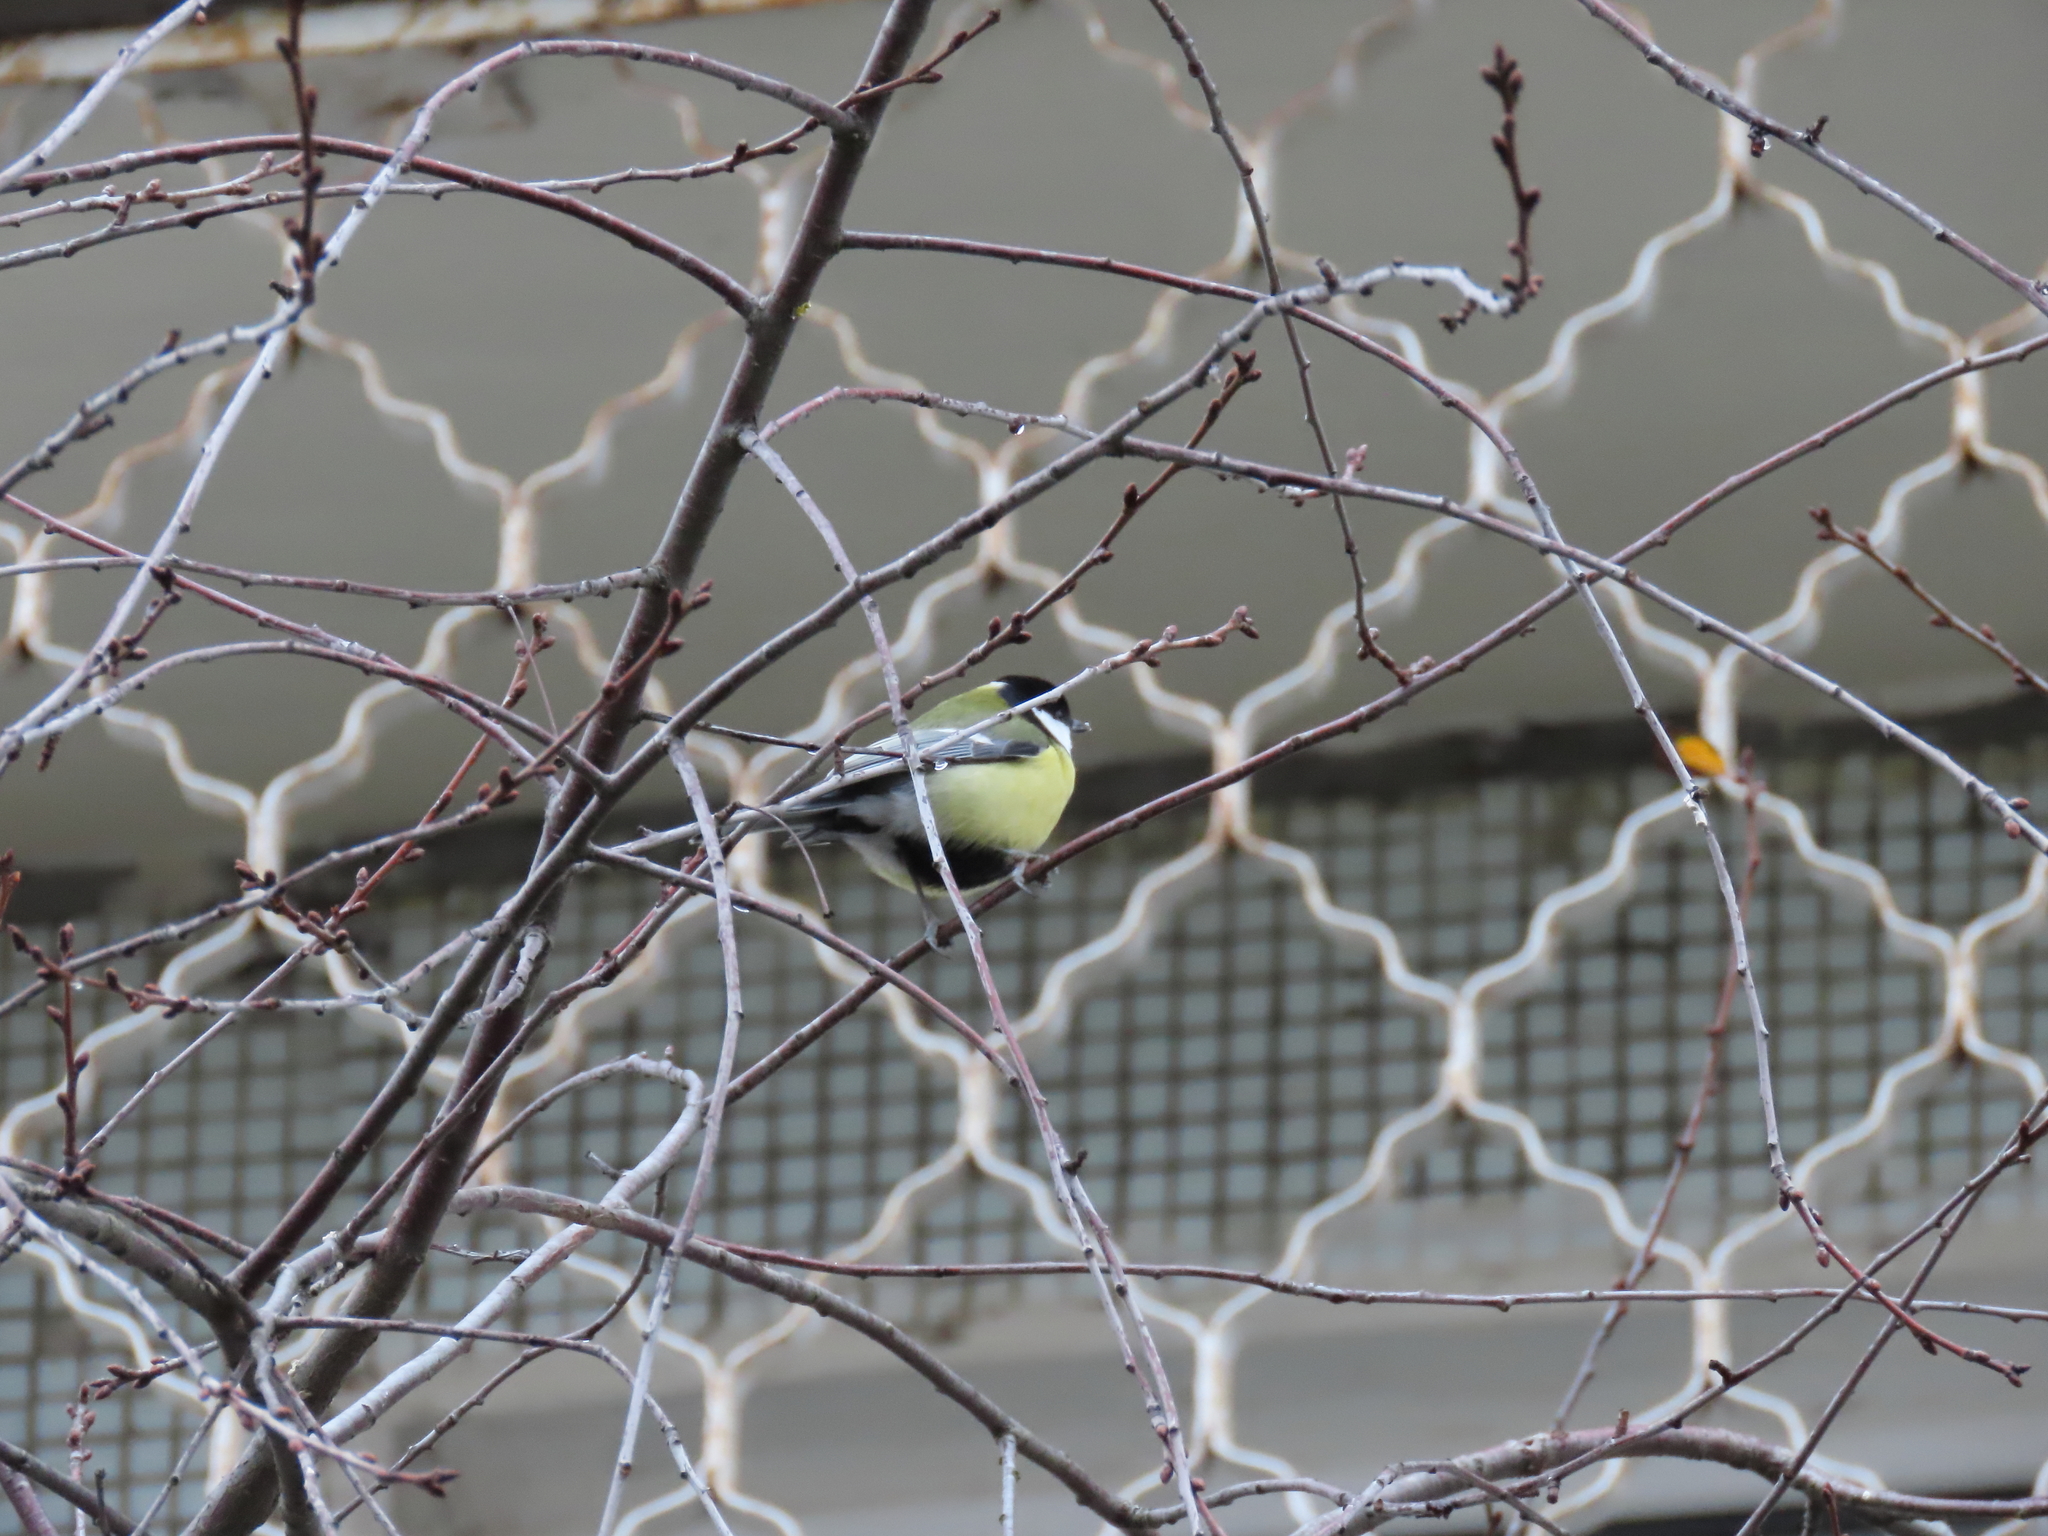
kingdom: Animalia
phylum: Chordata
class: Aves
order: Passeriformes
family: Paridae
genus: Parus
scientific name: Parus major
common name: Great tit
